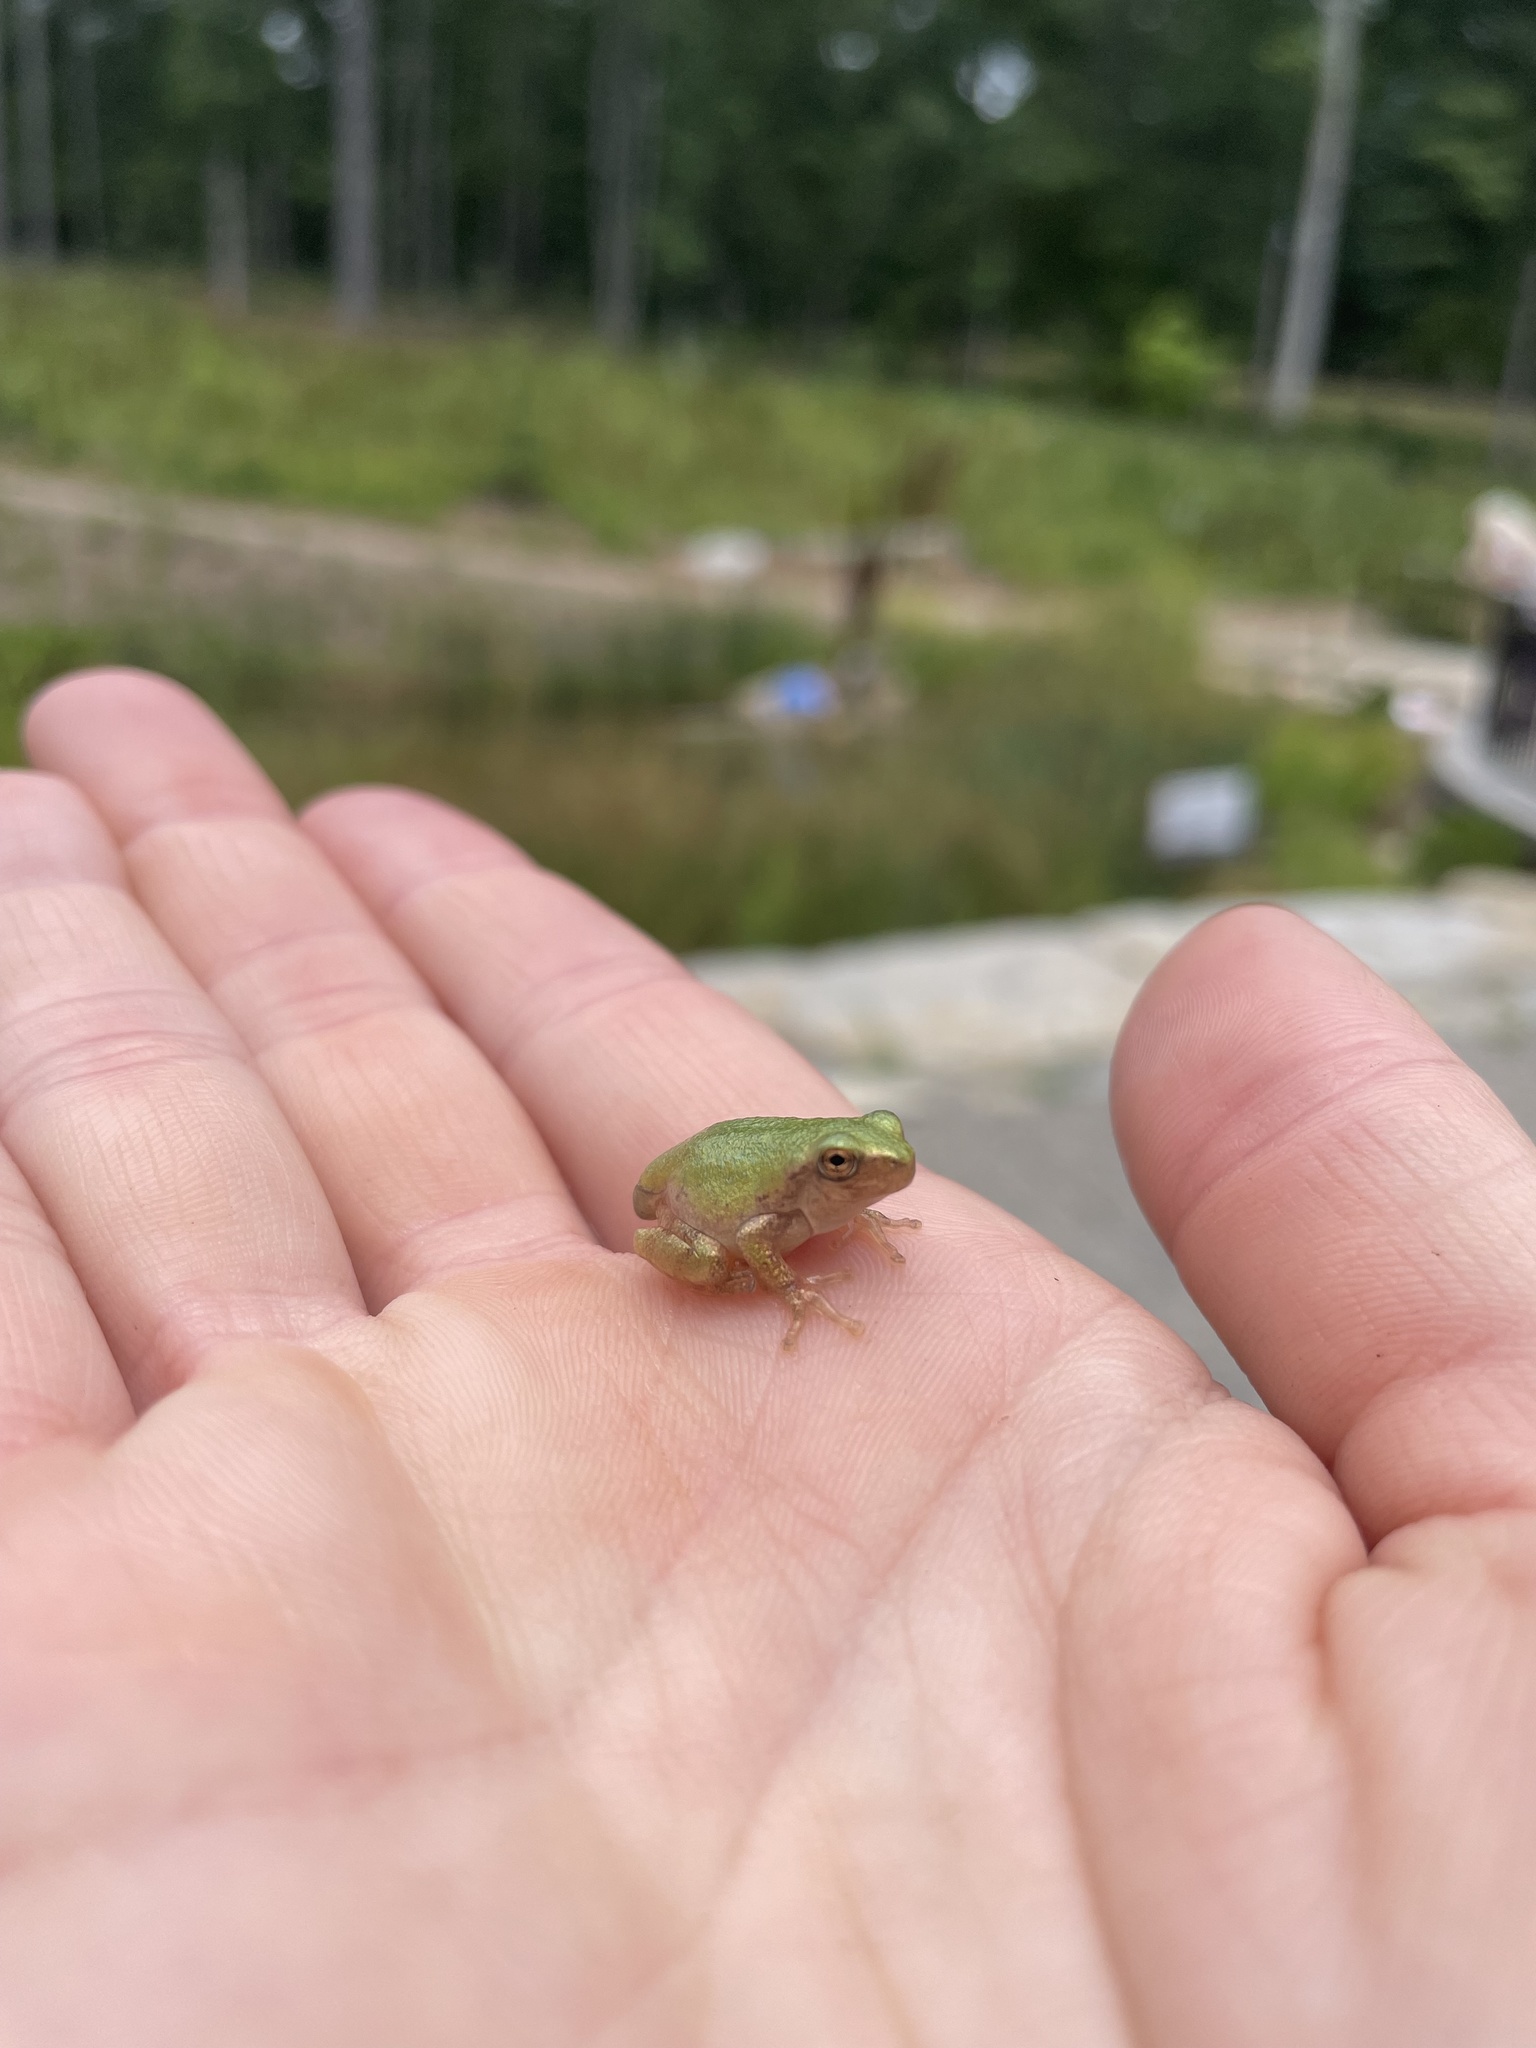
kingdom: Animalia
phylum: Chordata
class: Amphibia
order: Anura
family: Hylidae
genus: Dryophytes
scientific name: Dryophytes chrysoscelis
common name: Cope's gray treefrog
